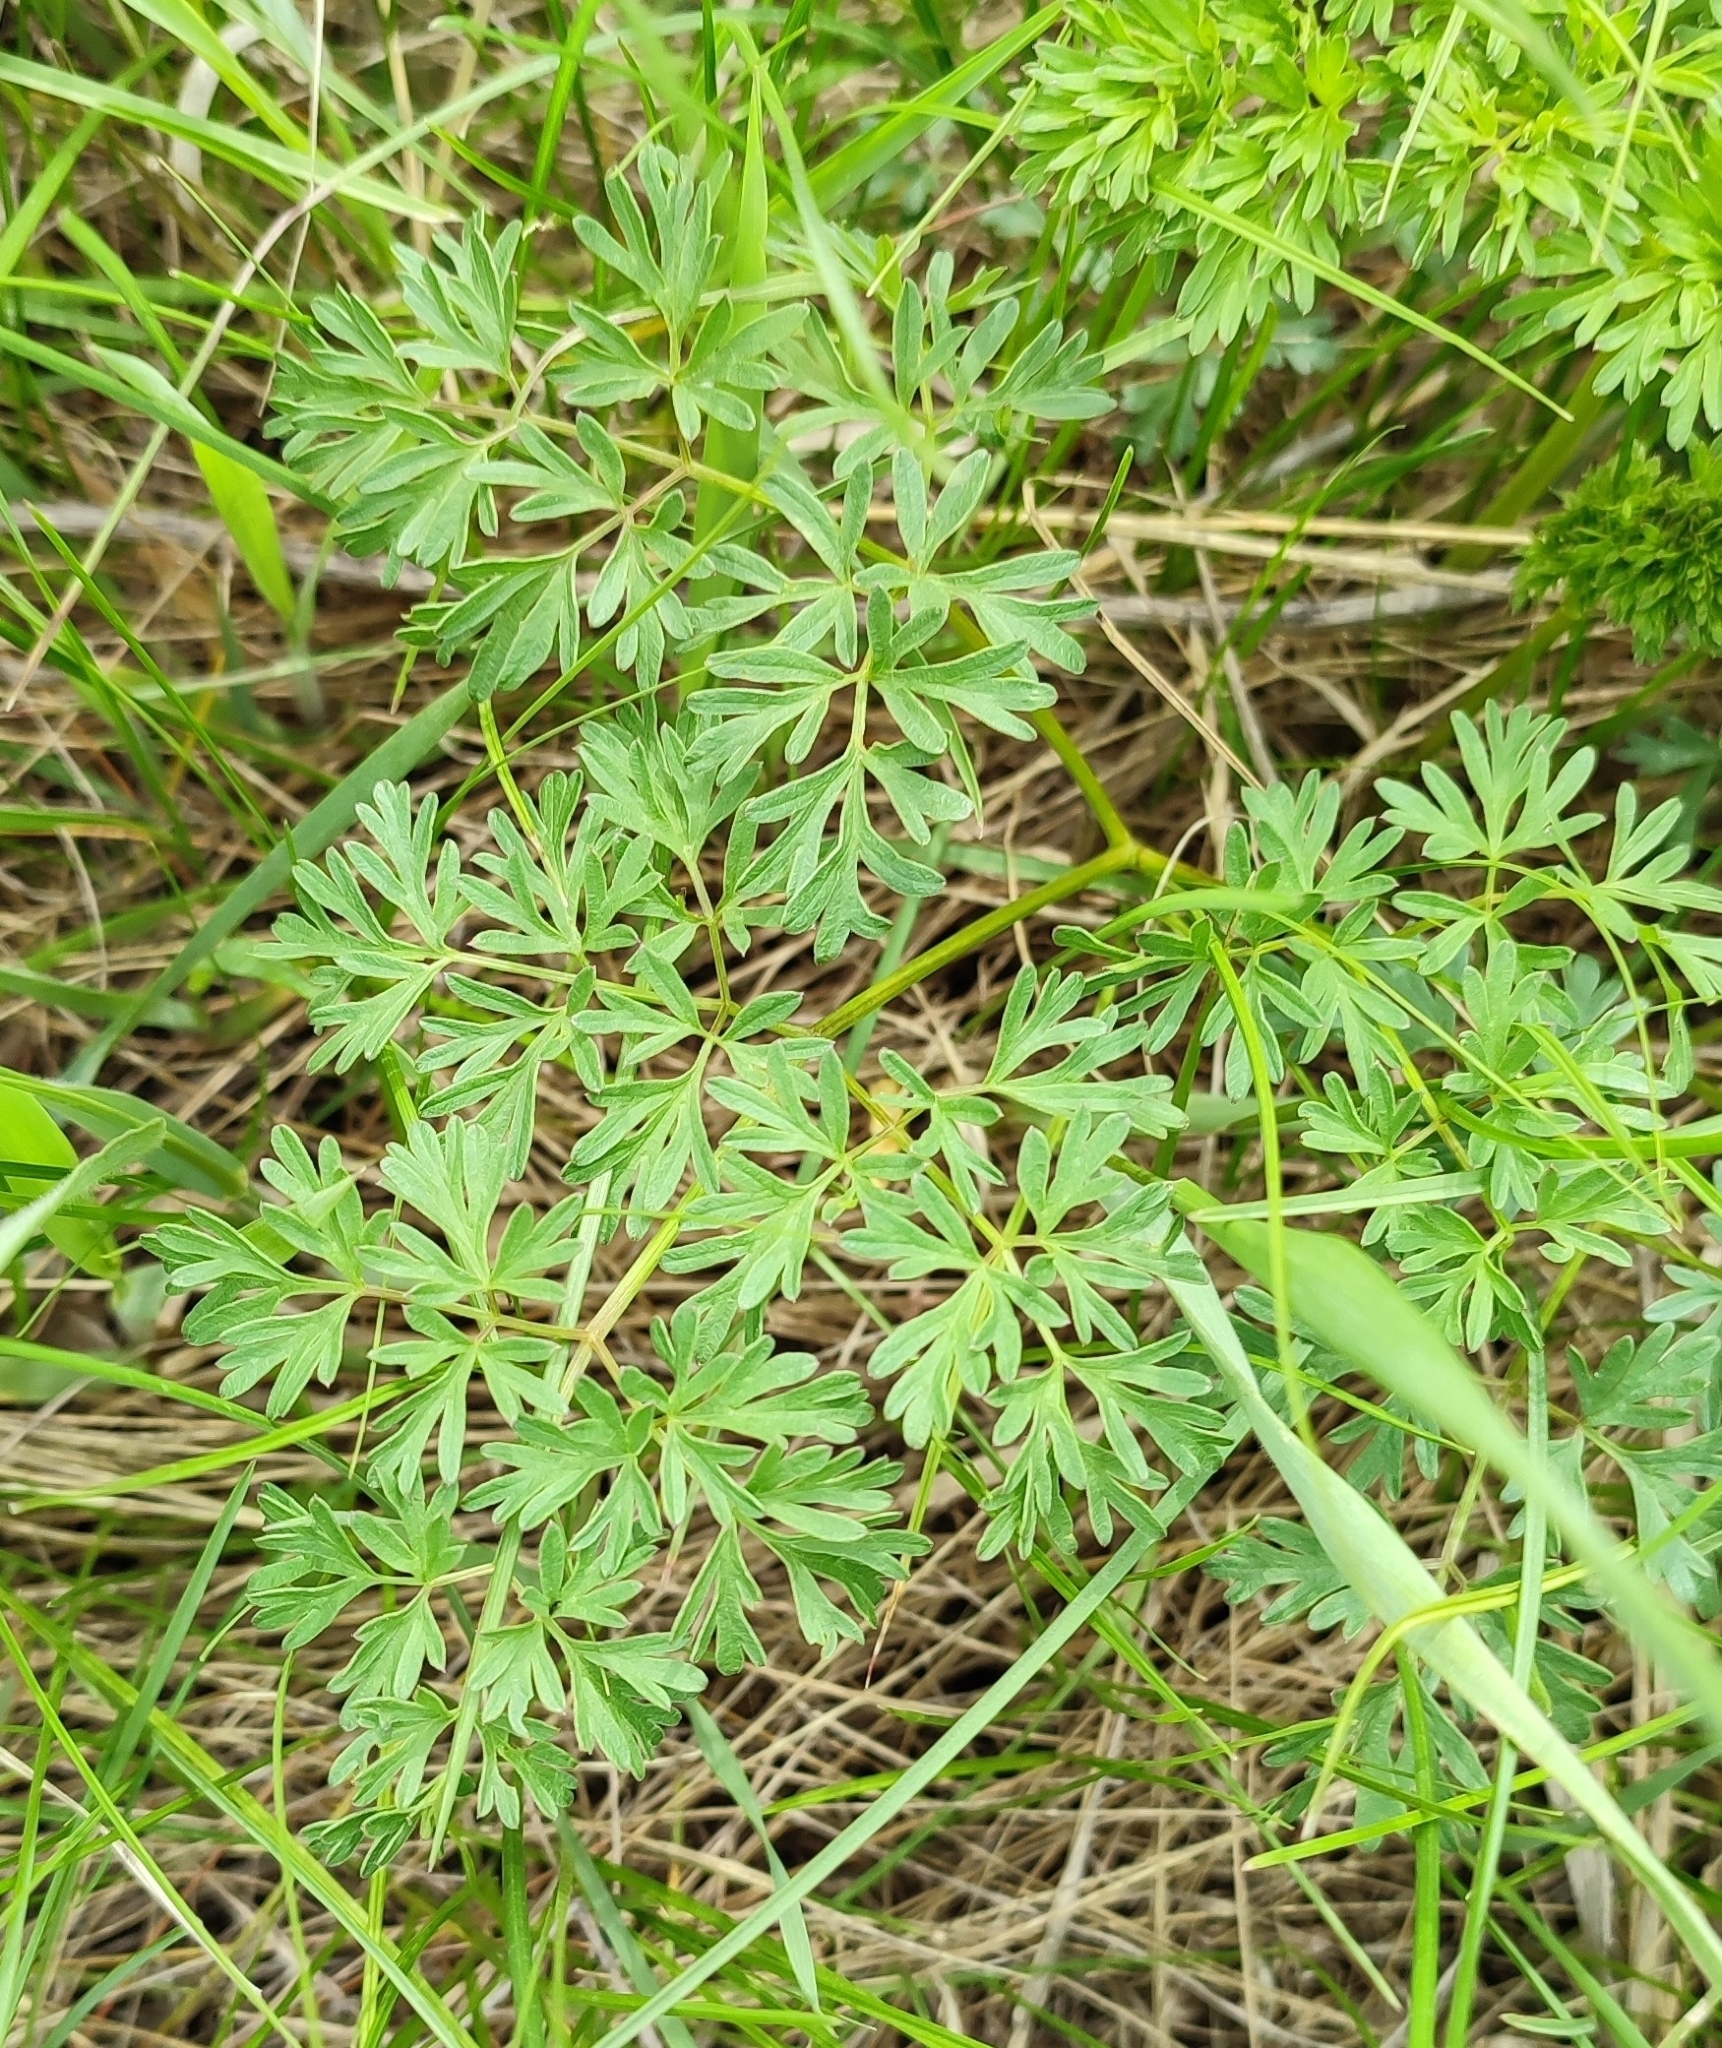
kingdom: Plantae
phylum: Tracheophyta
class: Magnoliopsida
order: Apiales
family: Apiaceae
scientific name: Apiaceae
